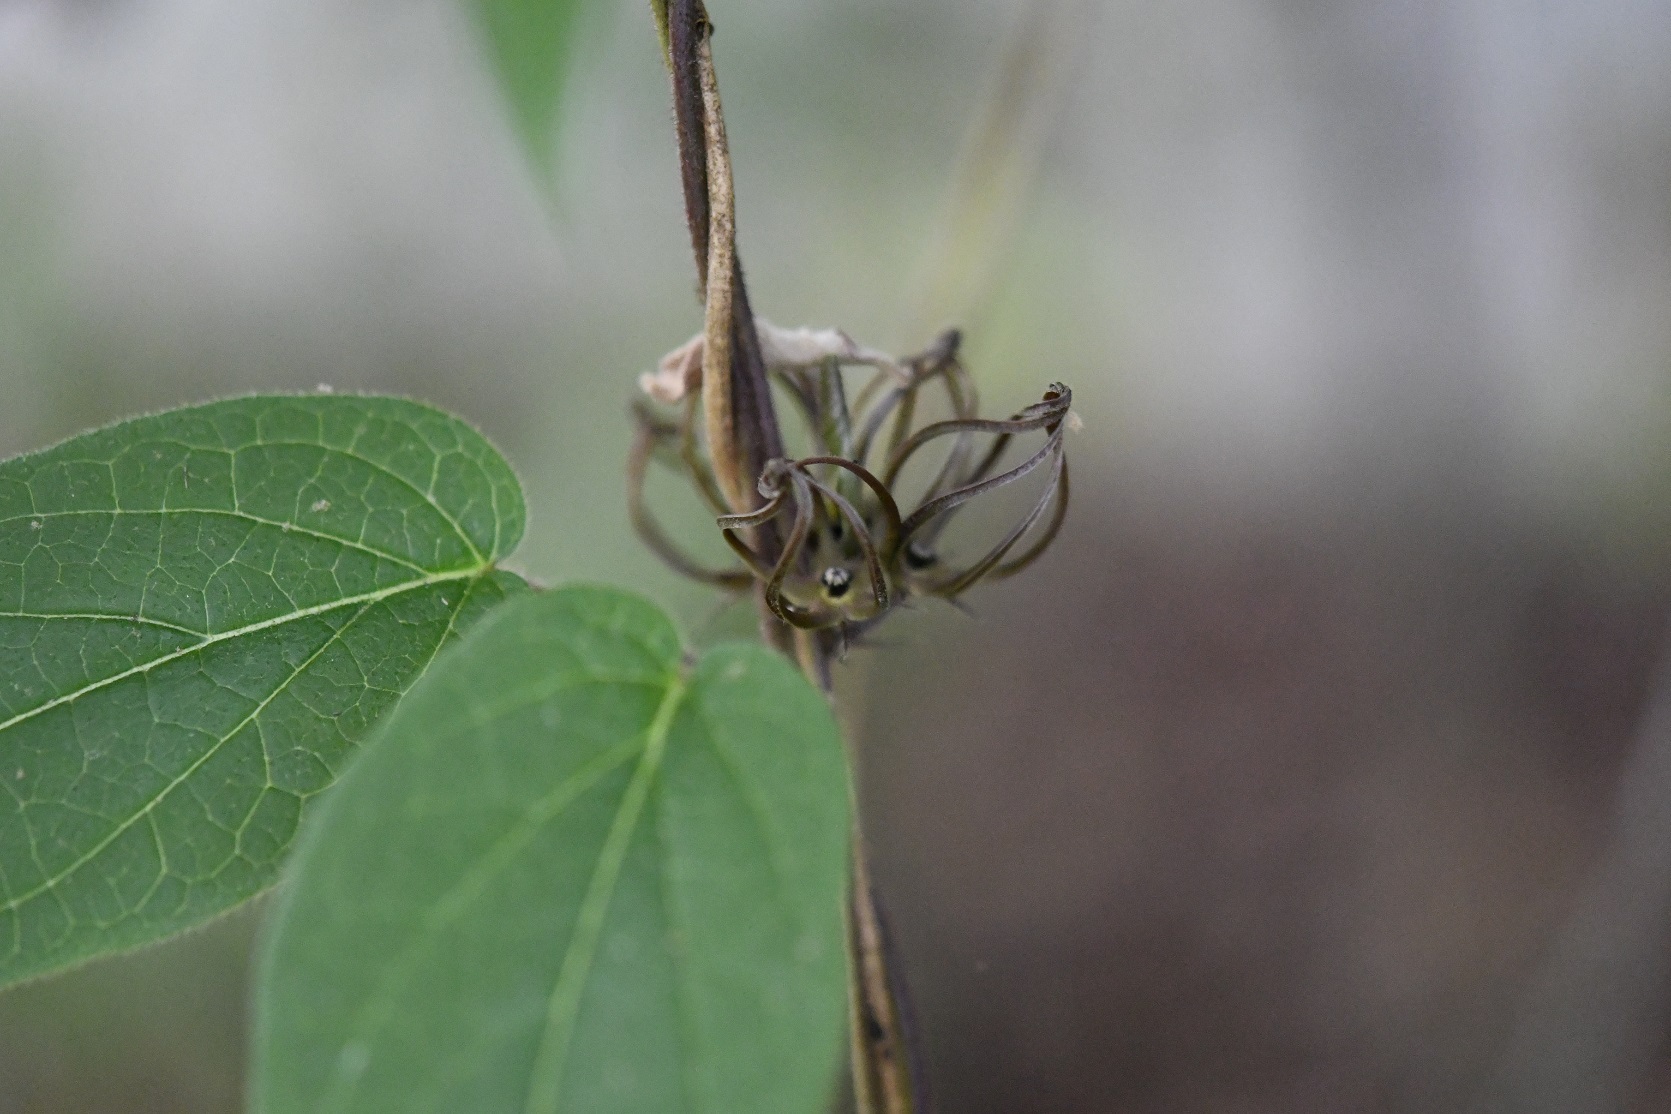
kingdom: Plantae
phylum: Tracheophyta
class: Magnoliopsida
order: Gentianales
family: Apocynaceae
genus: Matelea
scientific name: Matelea medusae
